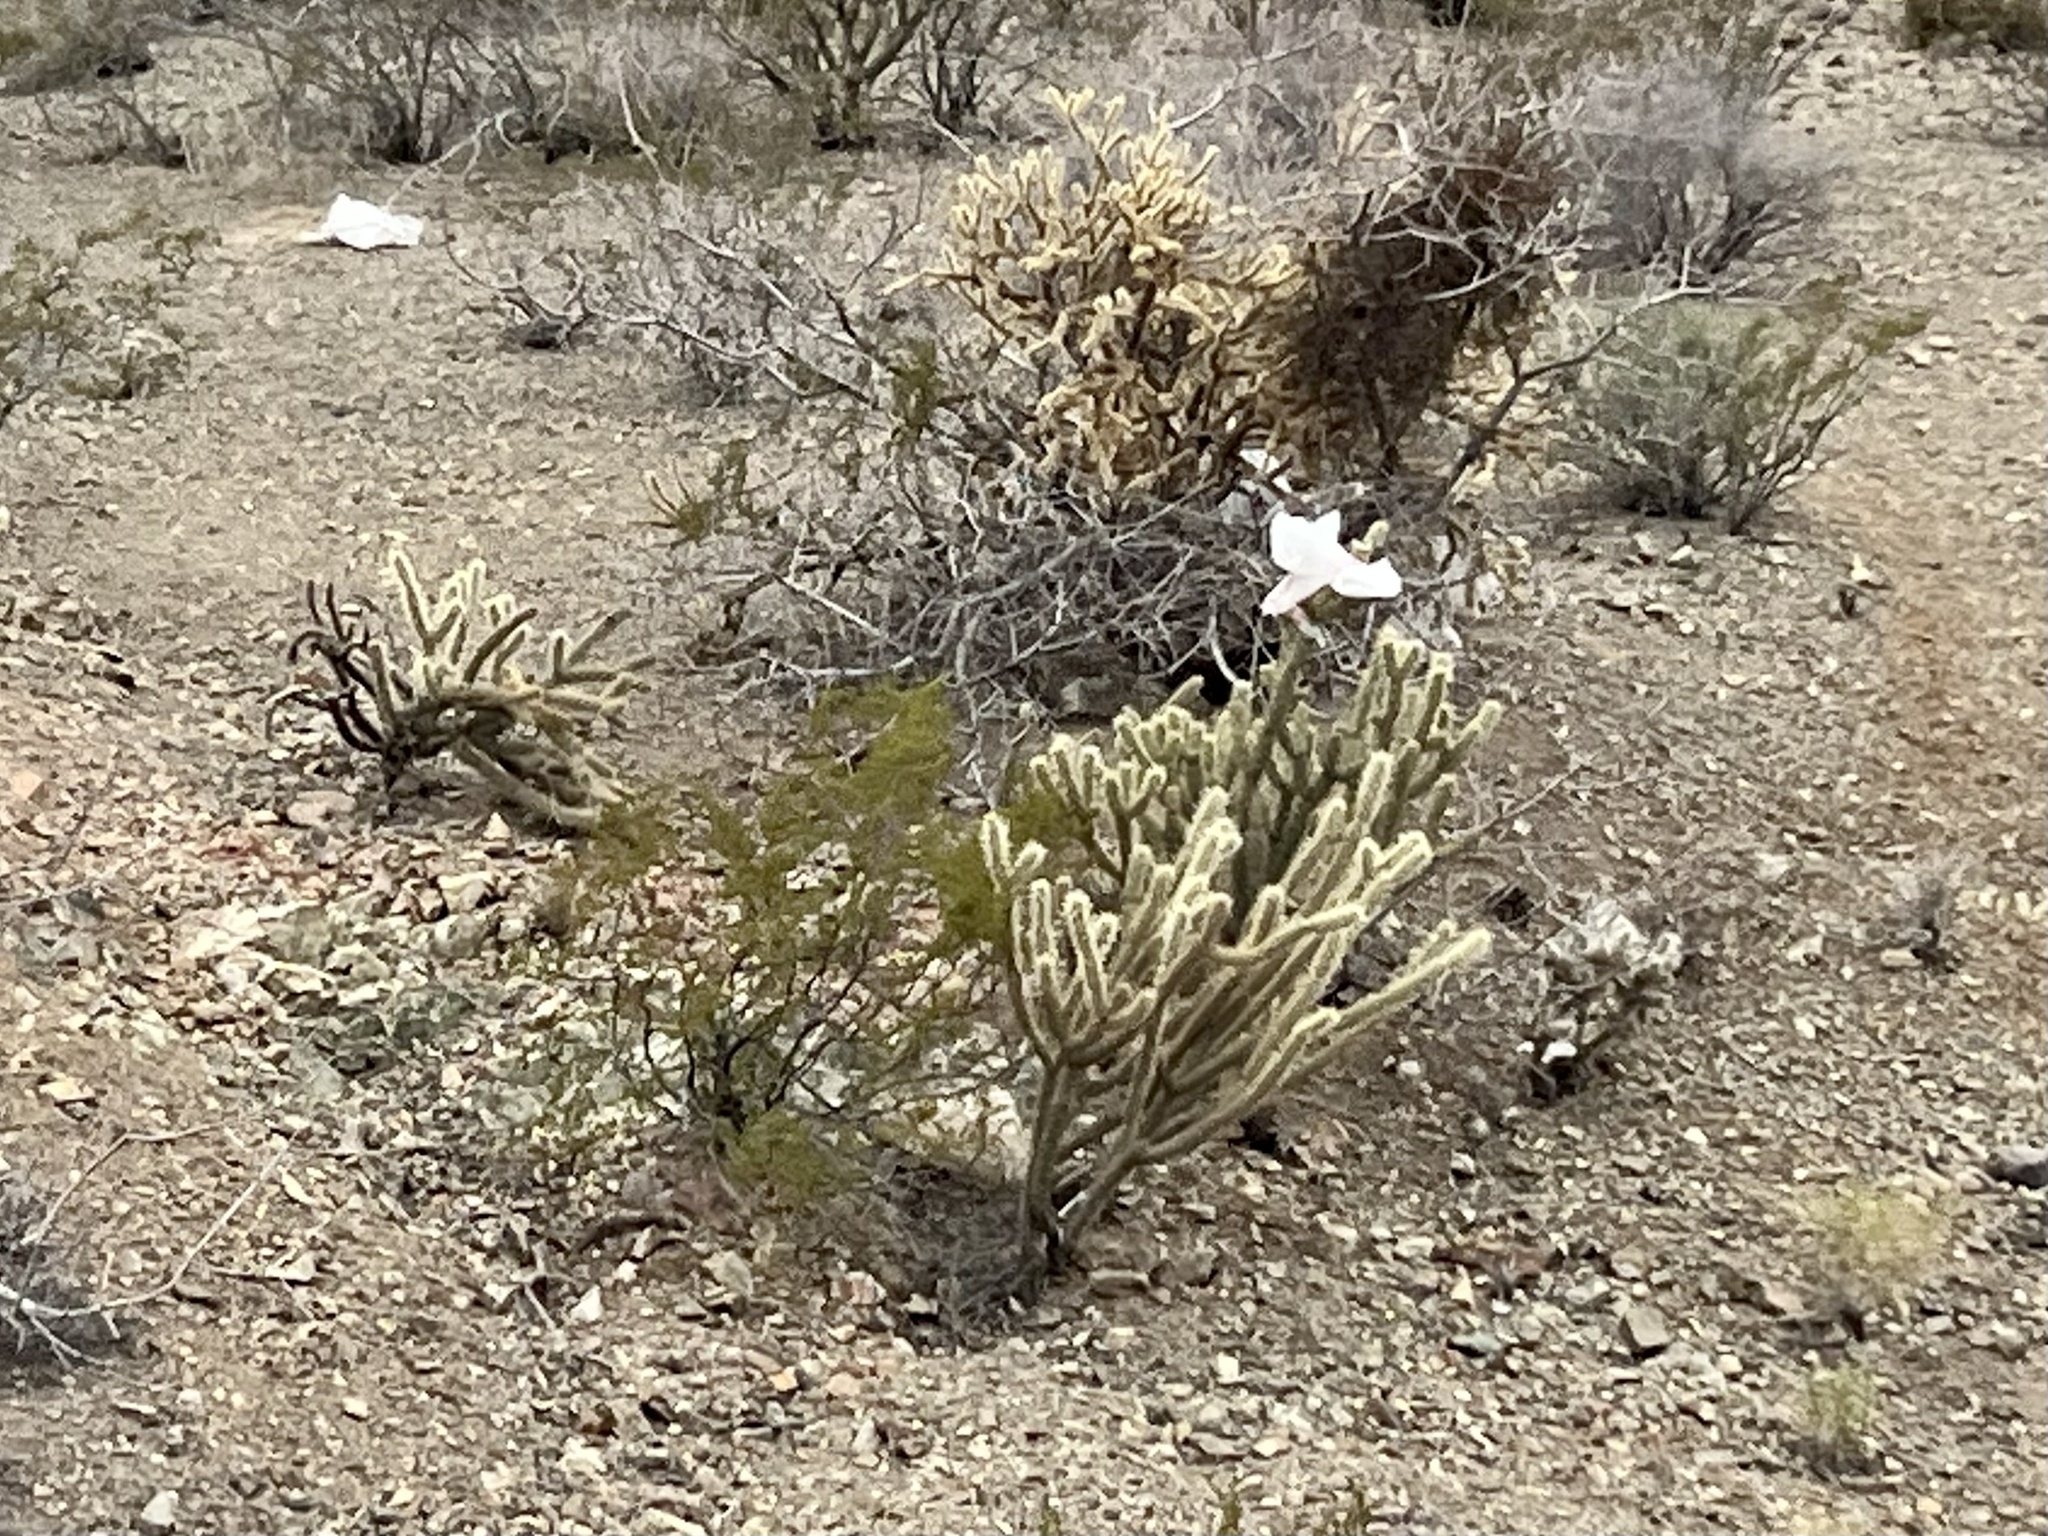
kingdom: Plantae
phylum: Tracheophyta
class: Magnoliopsida
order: Caryophyllales
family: Cactaceae
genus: Cylindropuntia
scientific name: Cylindropuntia acanthocarpa
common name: Buckhorn cholla
